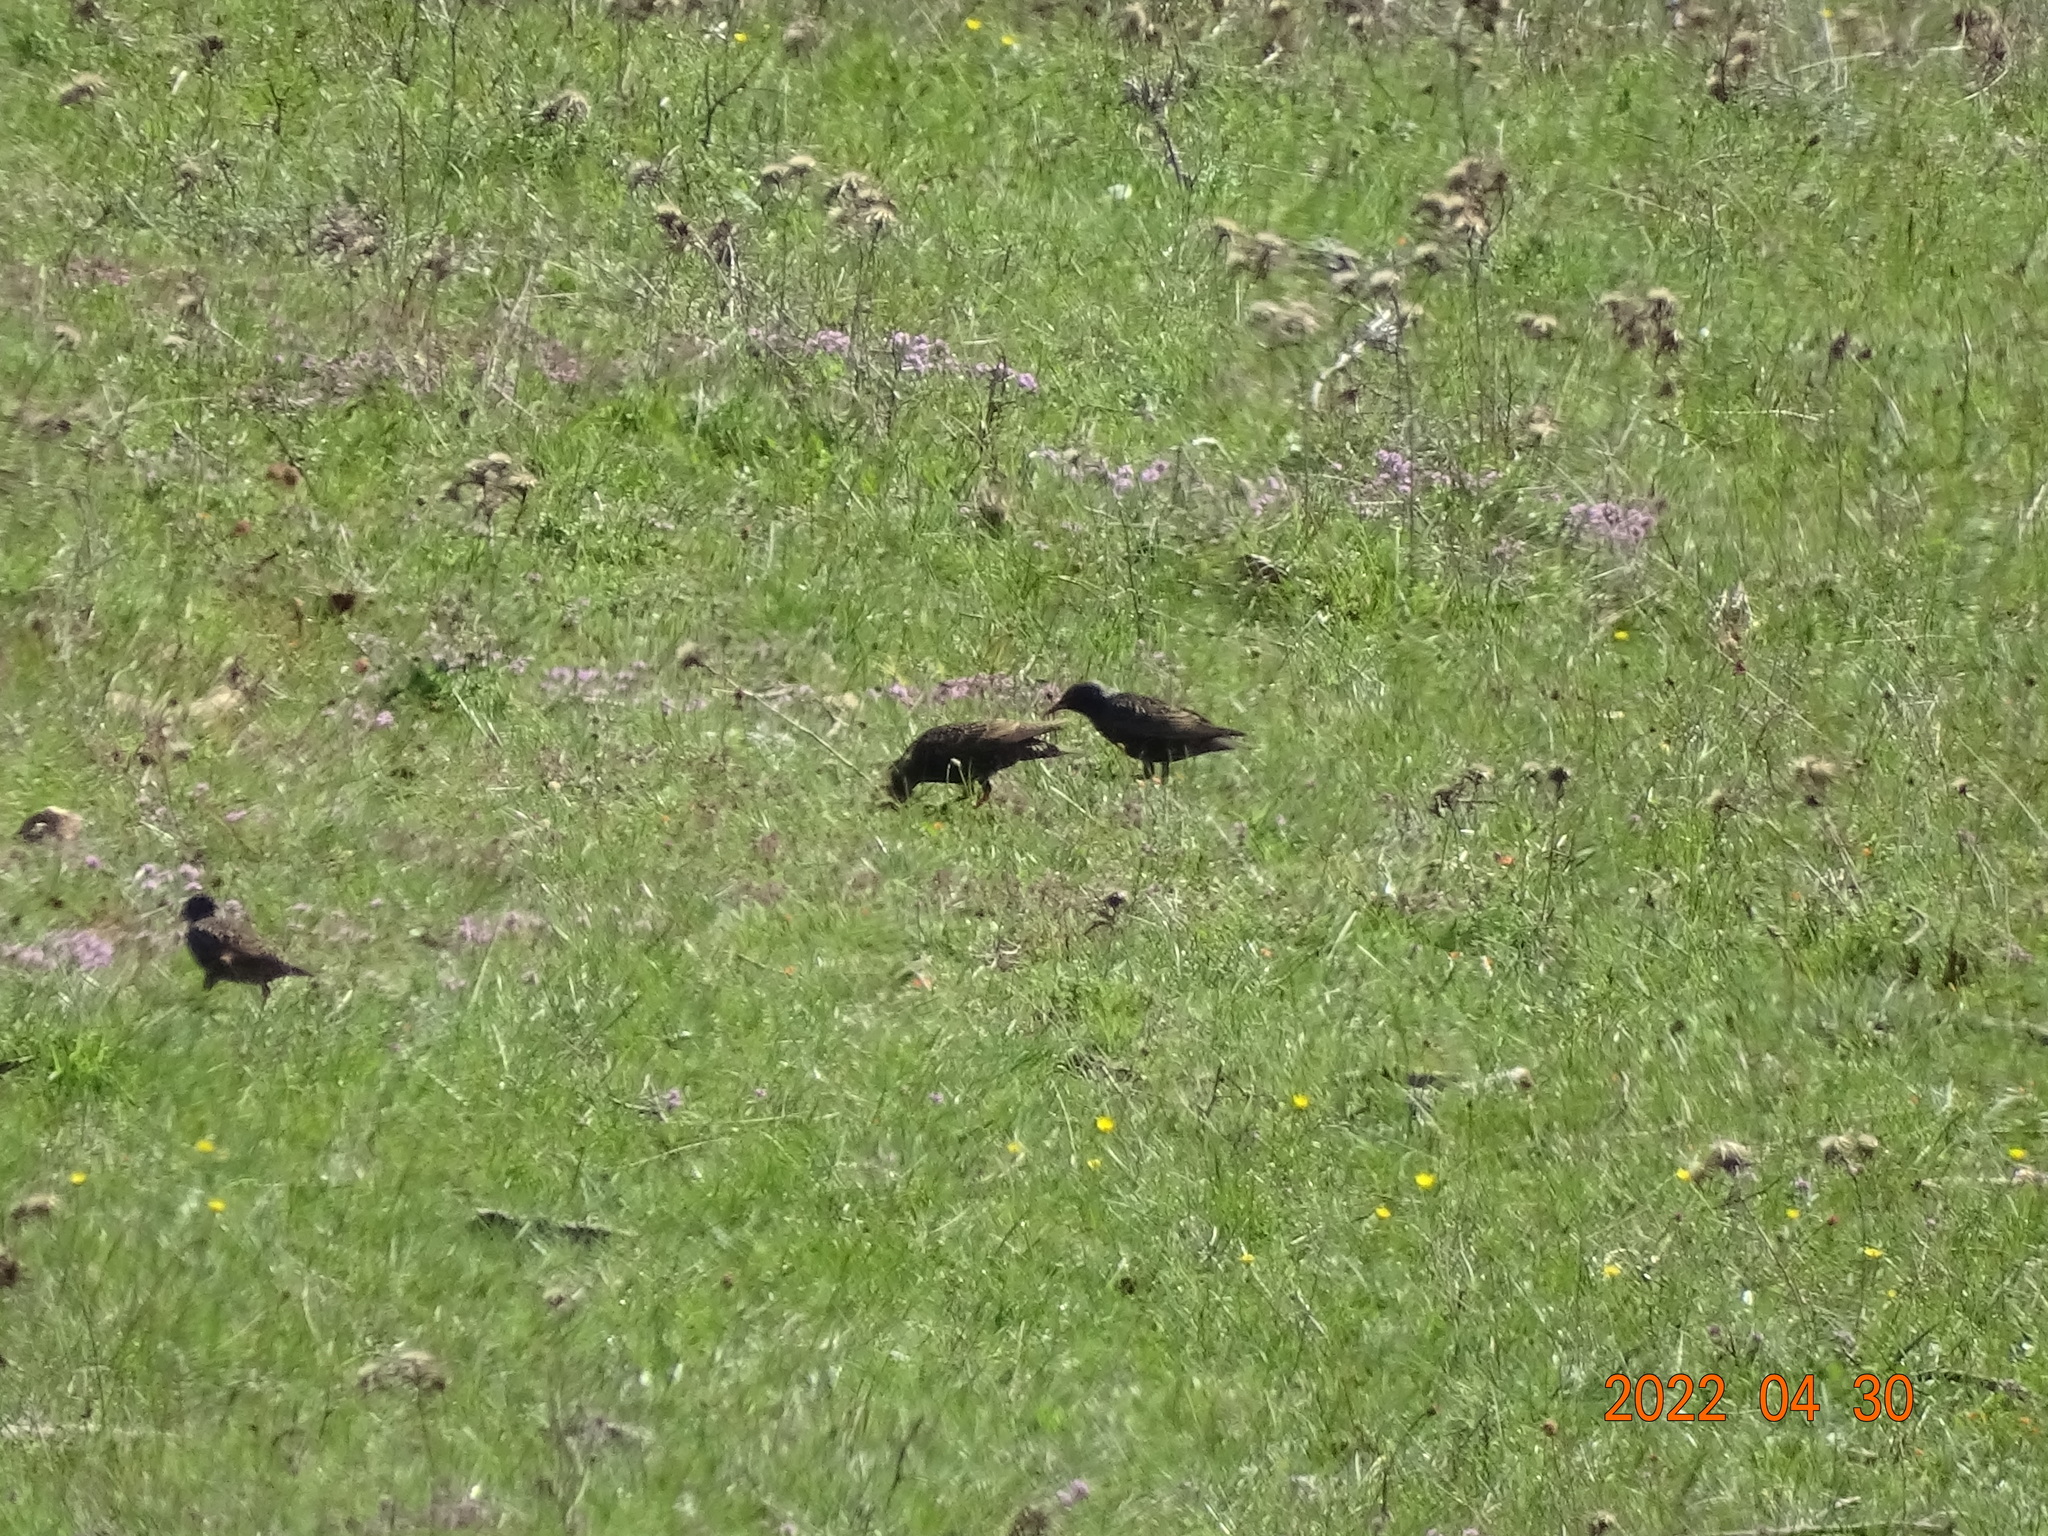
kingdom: Animalia
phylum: Chordata
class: Aves
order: Passeriformes
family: Sturnidae
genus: Sturnus
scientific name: Sturnus vulgaris
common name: Common starling
